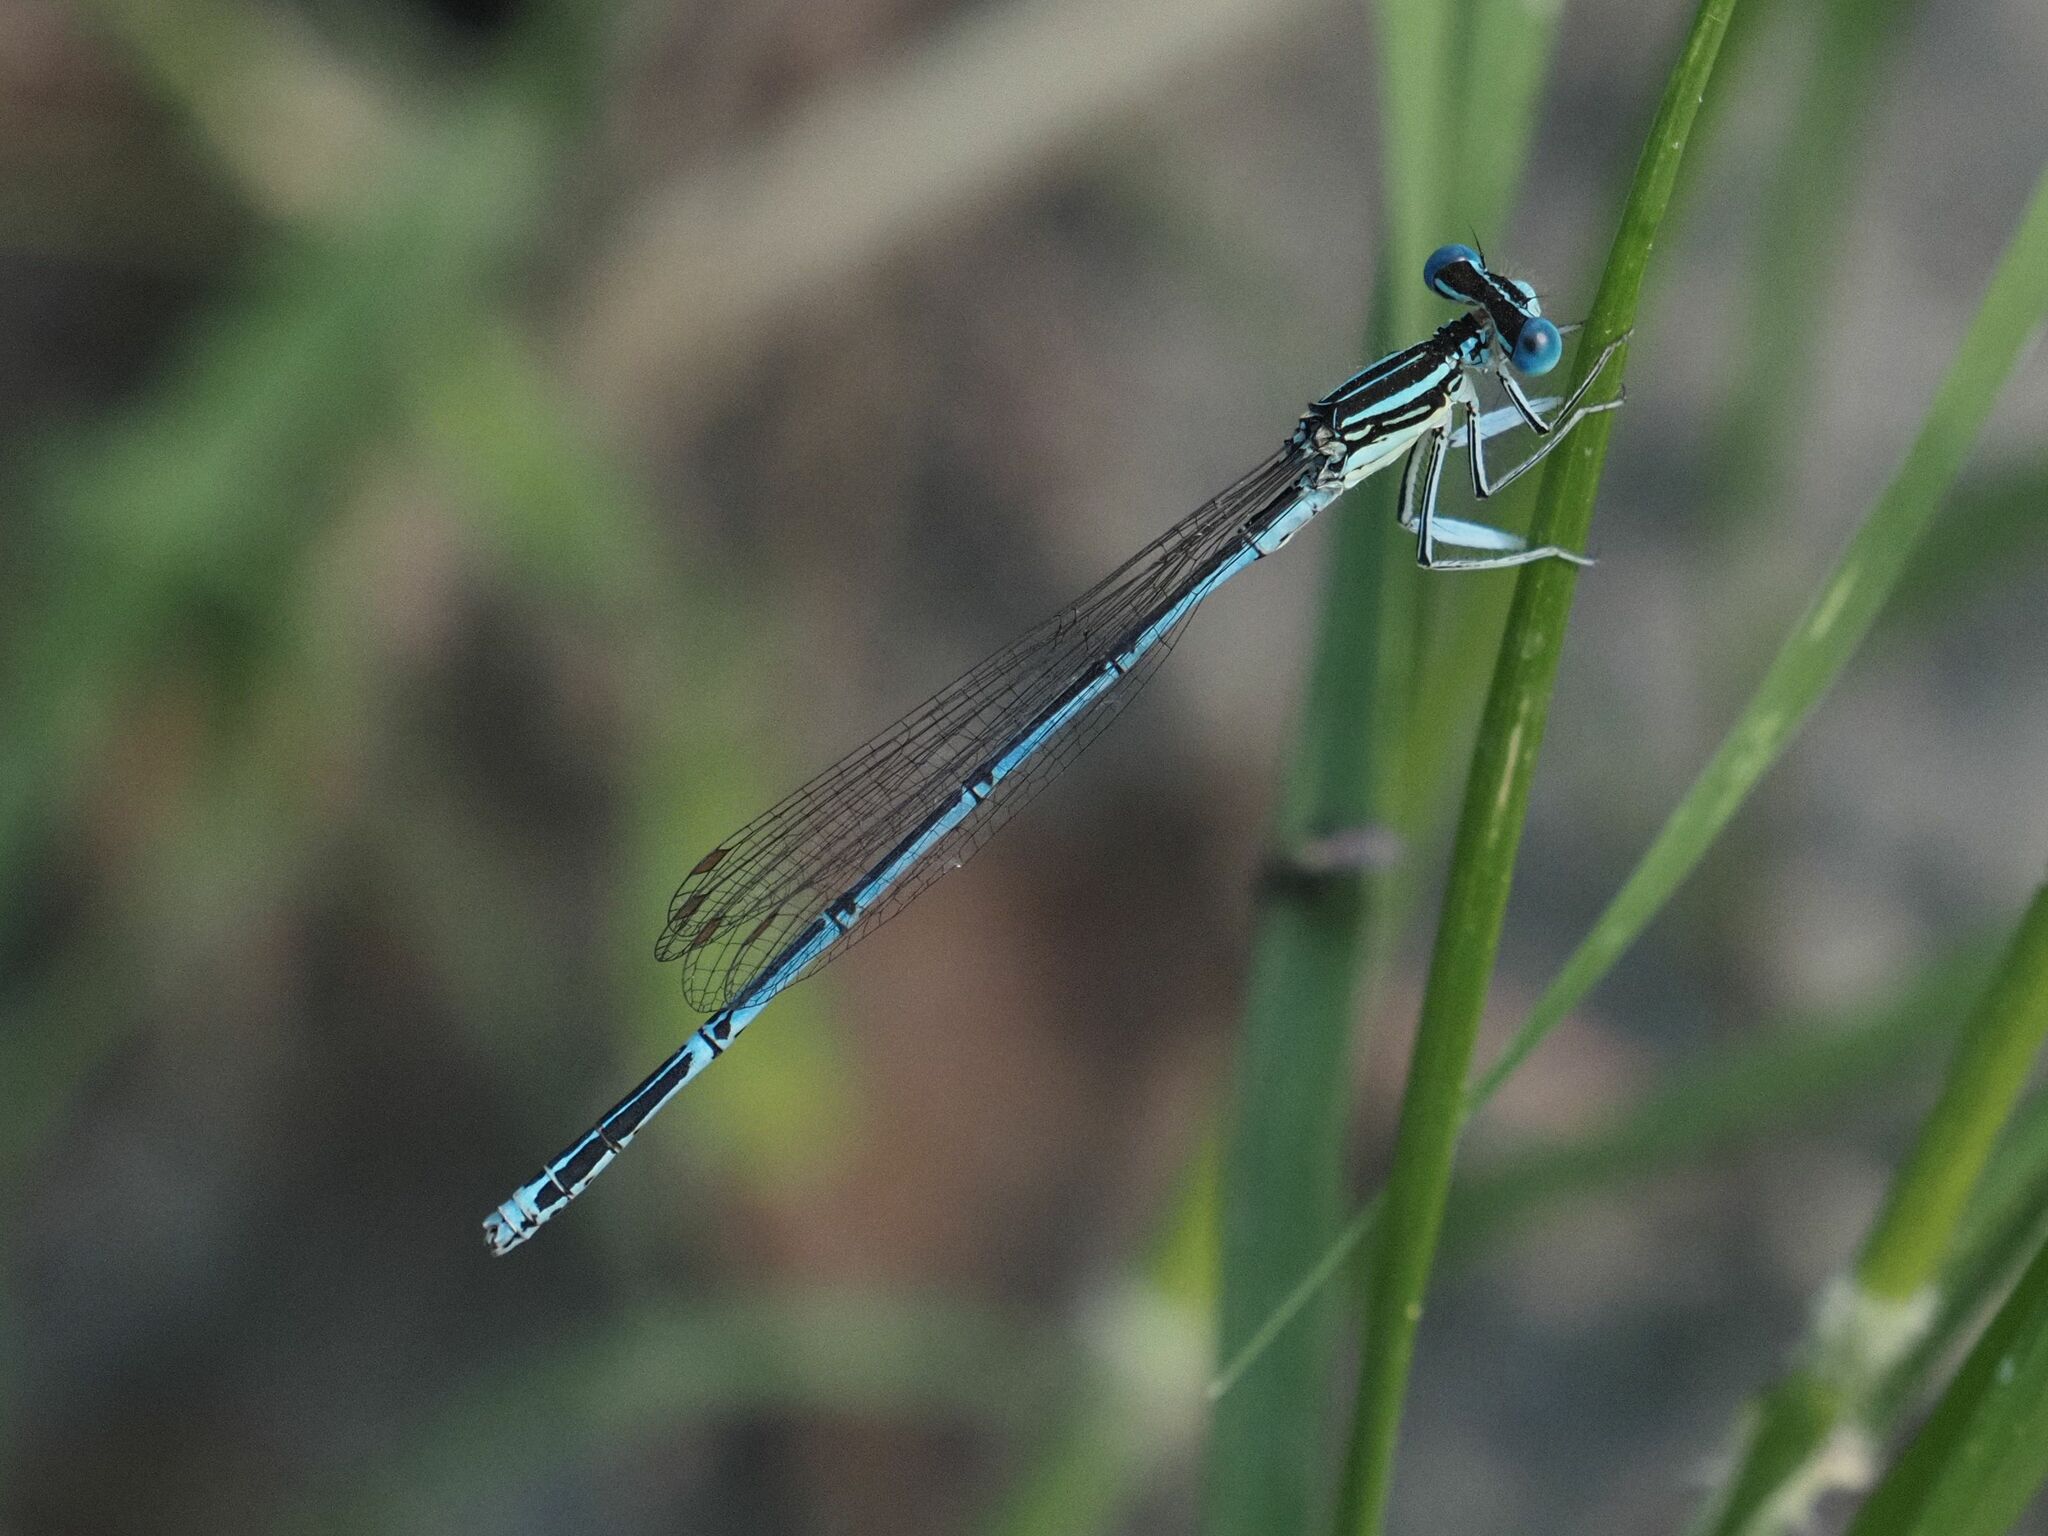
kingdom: Animalia
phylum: Arthropoda
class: Insecta
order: Odonata
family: Platycnemididae
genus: Platycnemis
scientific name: Platycnemis pennipes
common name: White-legged damselfly
